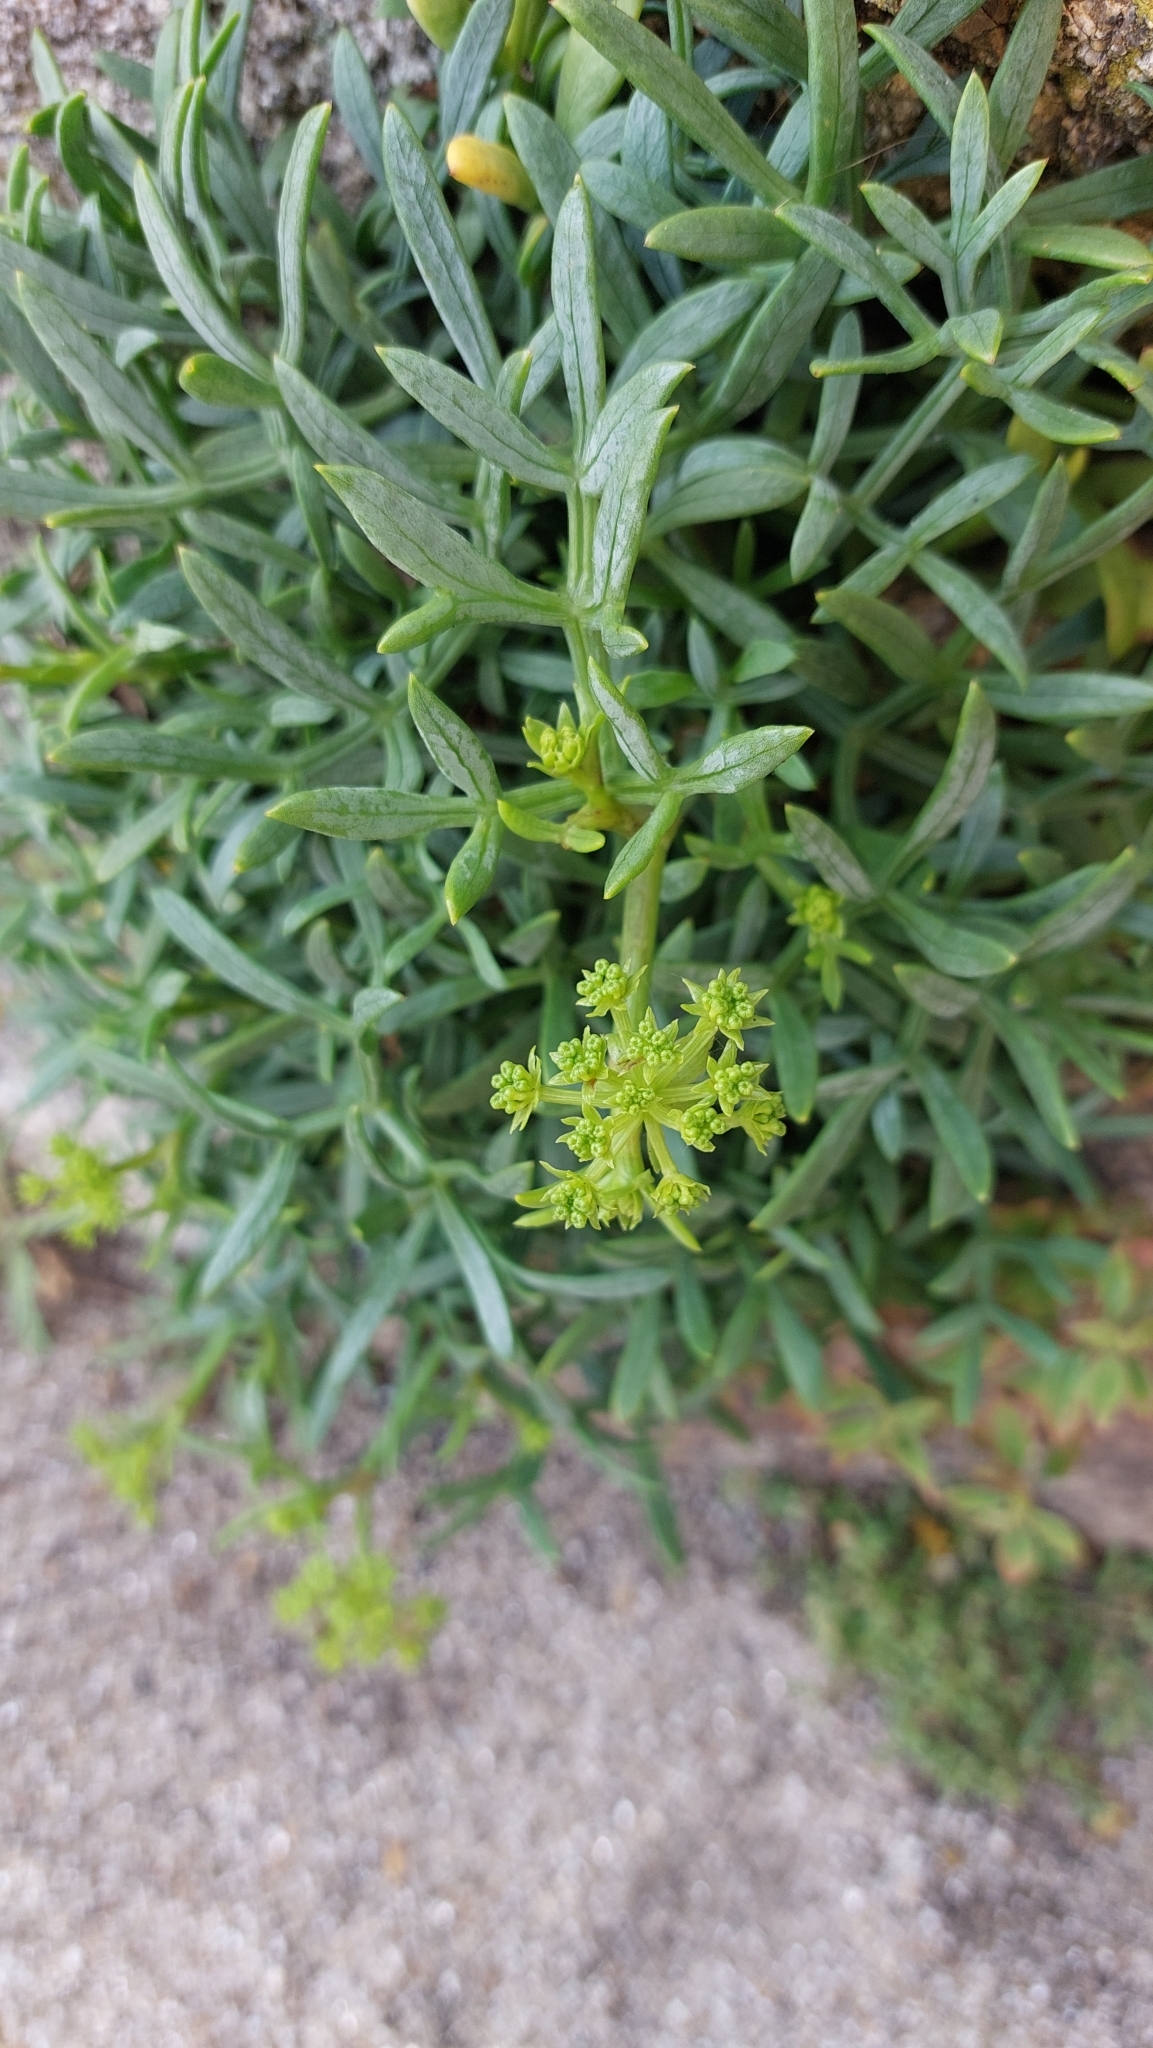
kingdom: Plantae
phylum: Tracheophyta
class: Magnoliopsida
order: Apiales
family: Apiaceae
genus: Crithmum
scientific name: Crithmum maritimum
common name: Rock samphire
